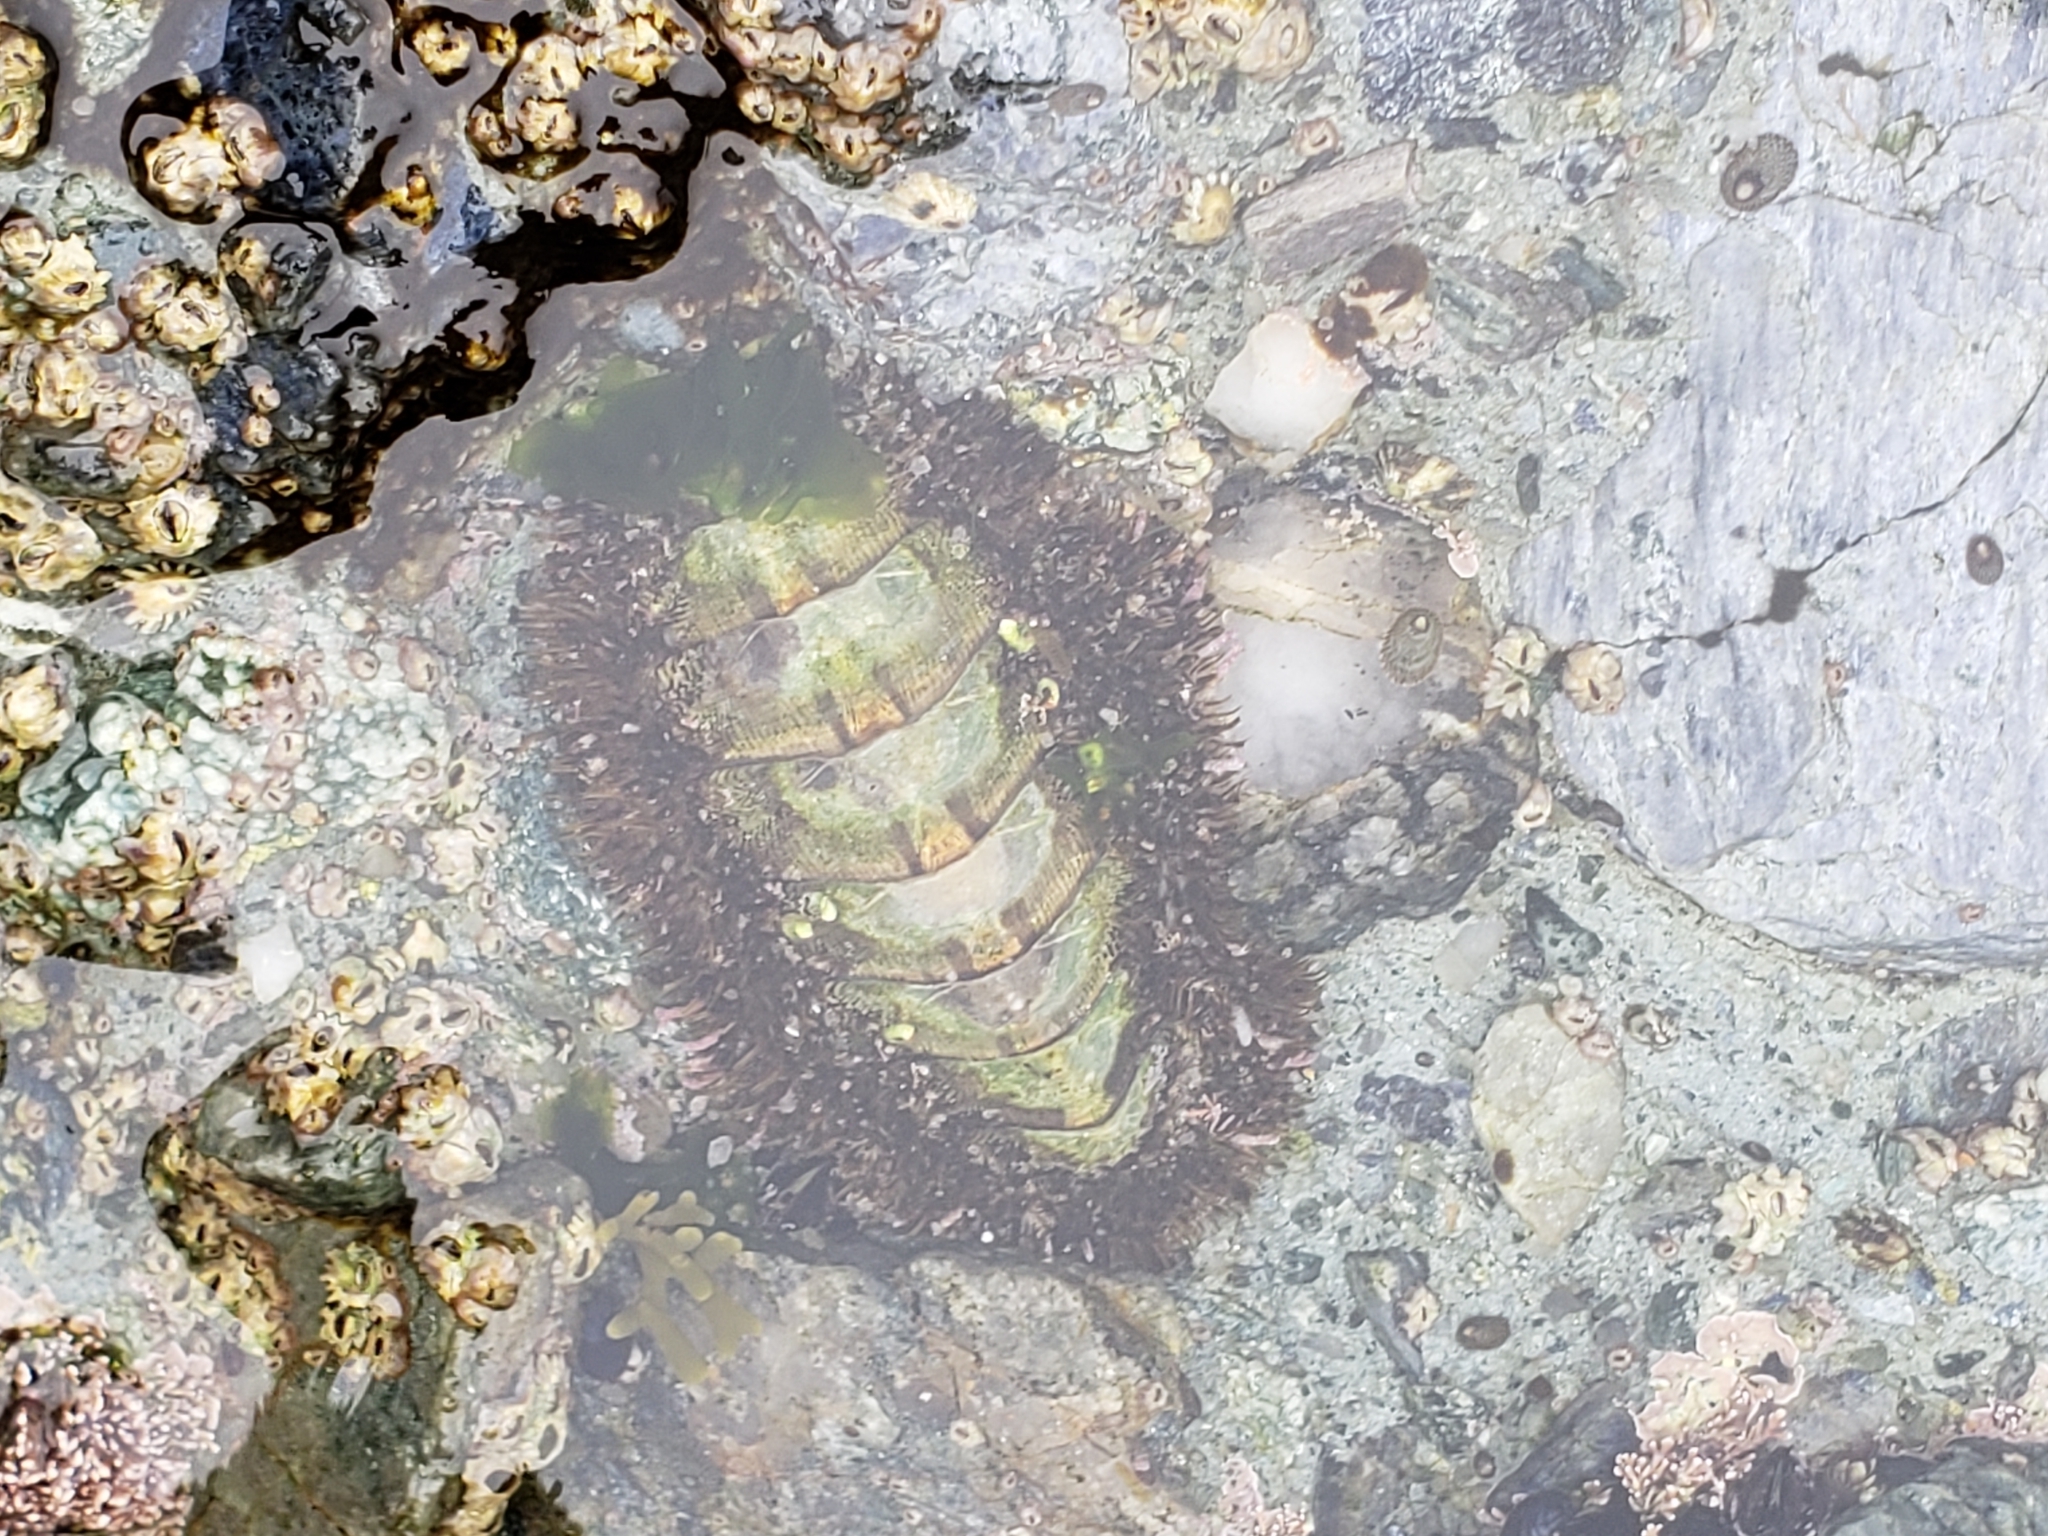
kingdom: Animalia
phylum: Mollusca
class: Polyplacophora
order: Chitonida
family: Mopaliidae
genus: Mopalia
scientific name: Mopalia muscosa
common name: Mossy chiton
